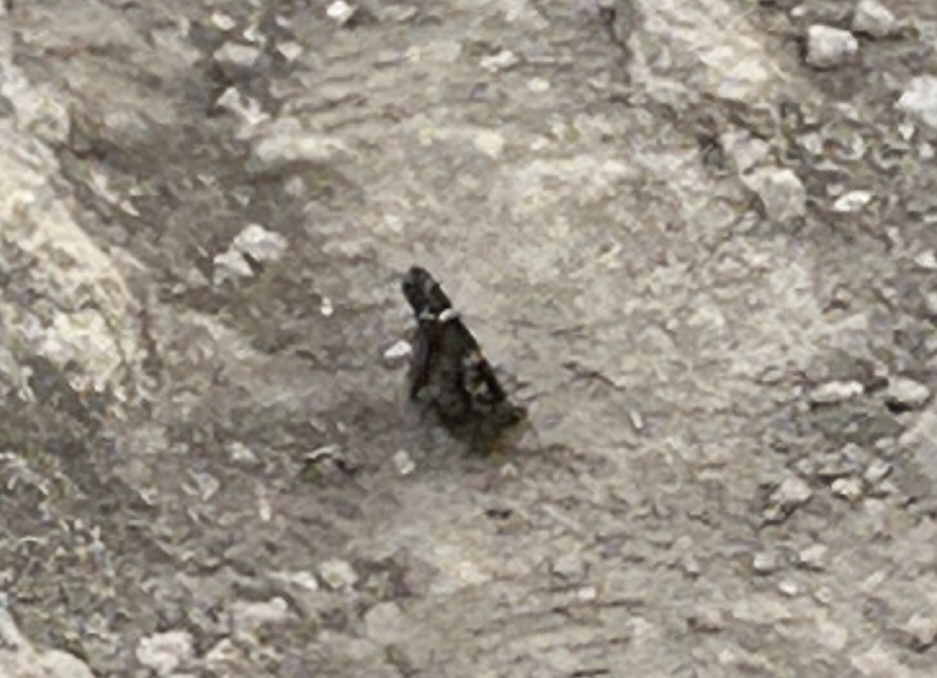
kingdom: Animalia
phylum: Arthropoda
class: Insecta
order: Lepidoptera
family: Nymphalidae
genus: Vanessa
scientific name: Vanessa indica
